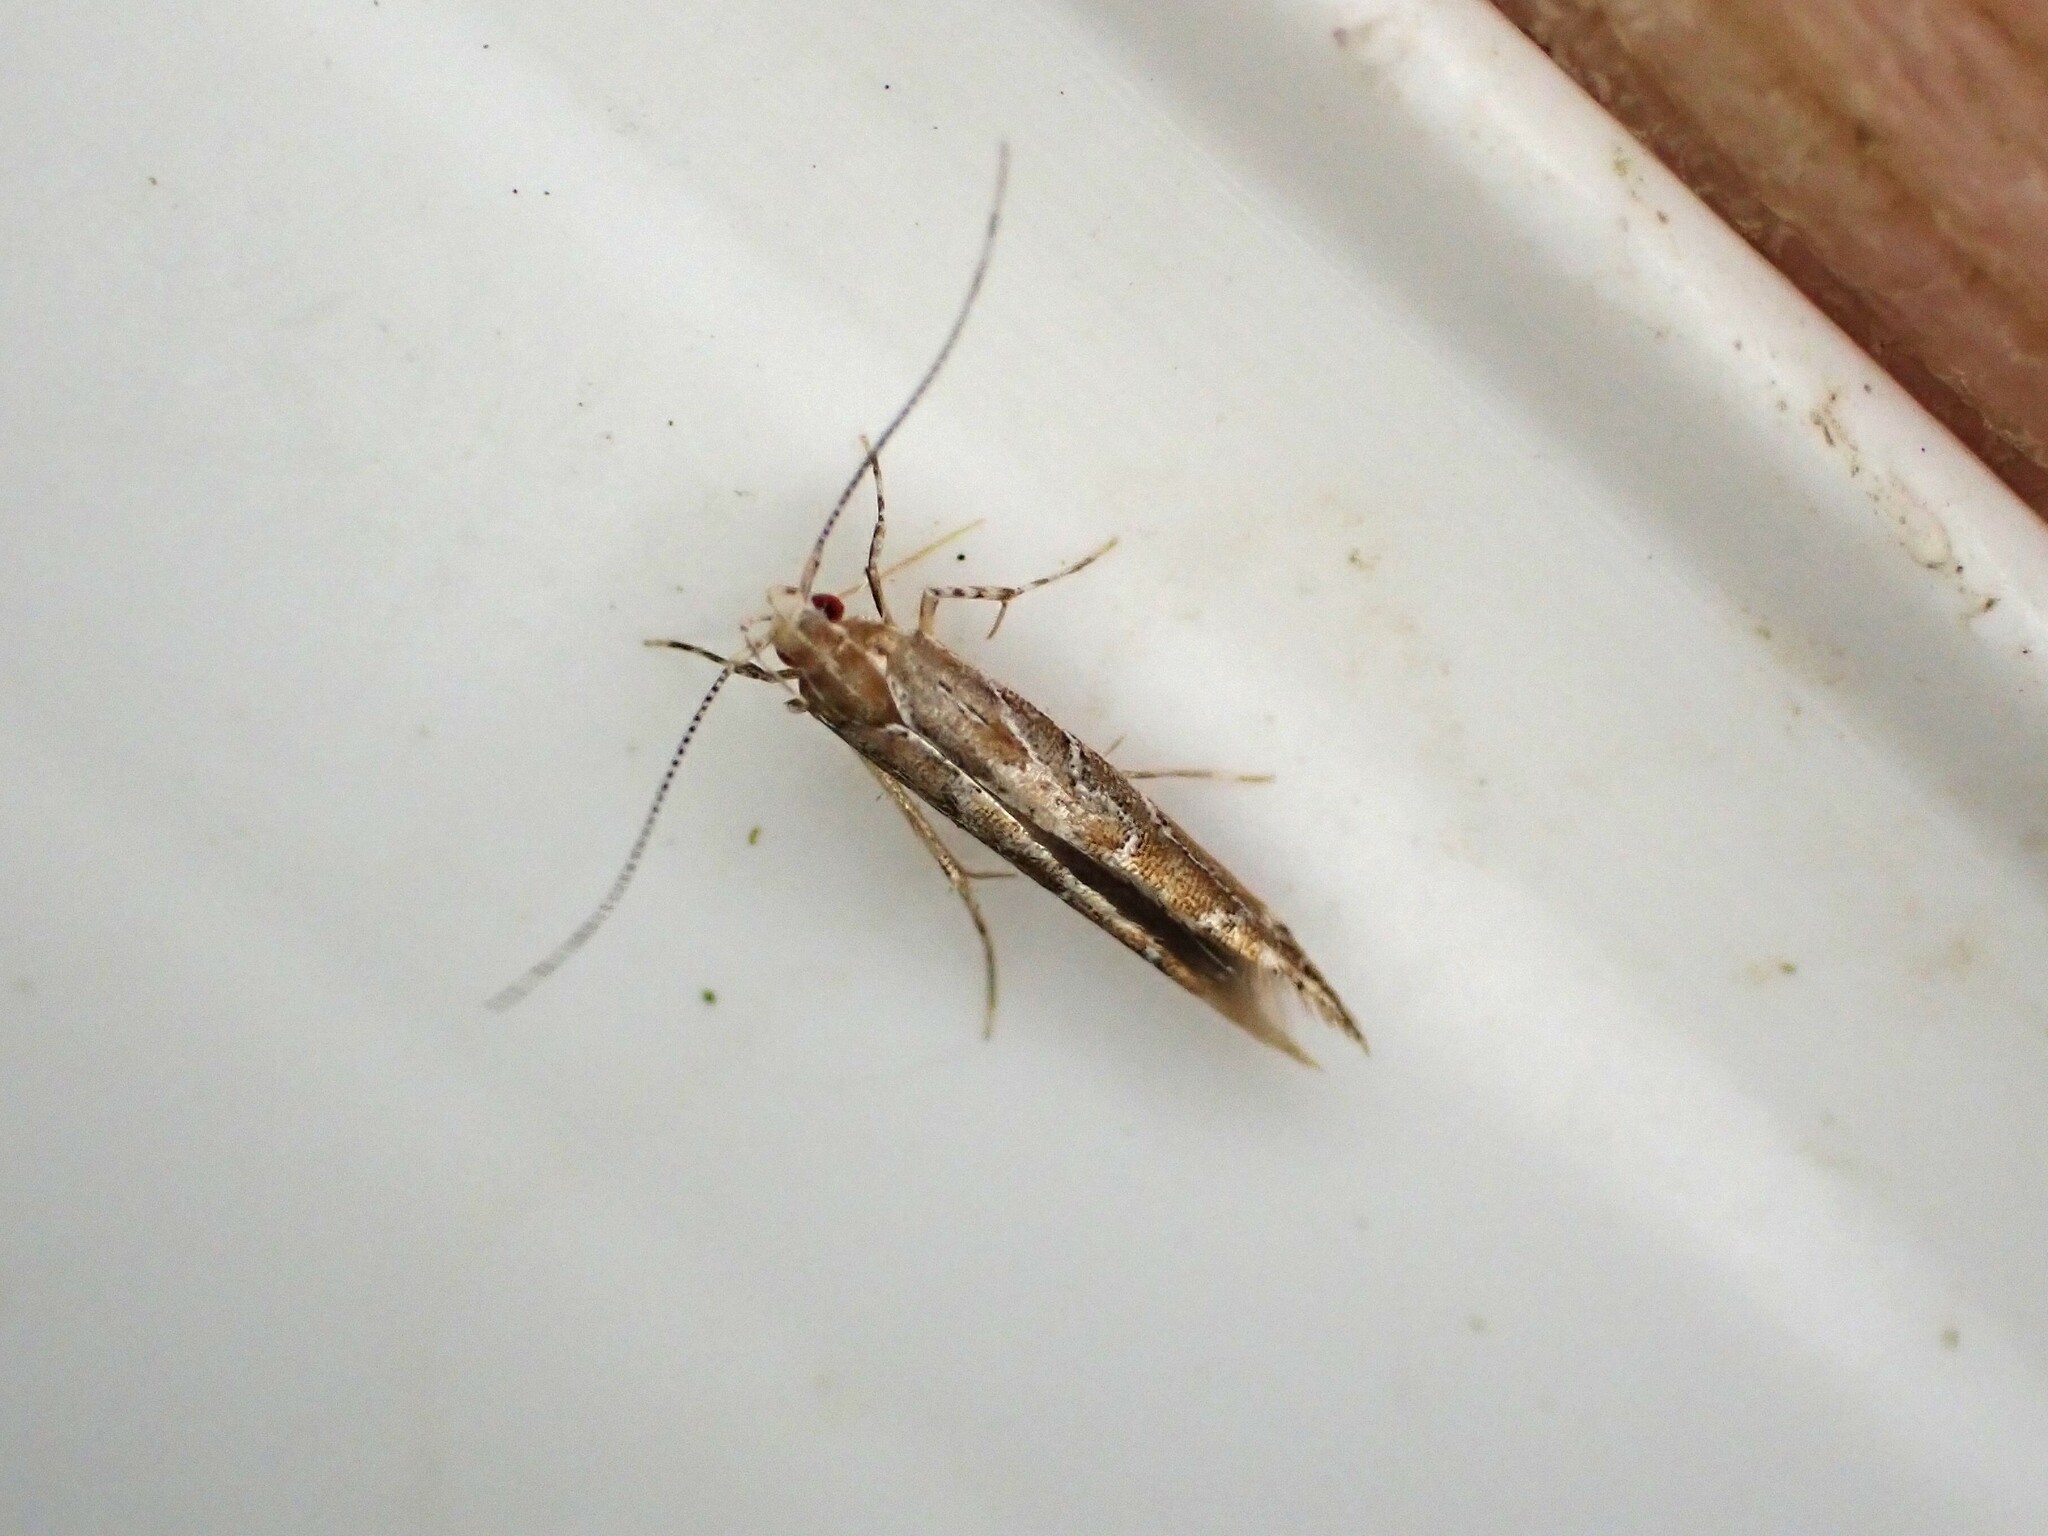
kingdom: Animalia
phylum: Arthropoda
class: Insecta
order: Lepidoptera
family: Cosmopterigidae
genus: Pyroderces
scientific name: Pyroderces apparitella
